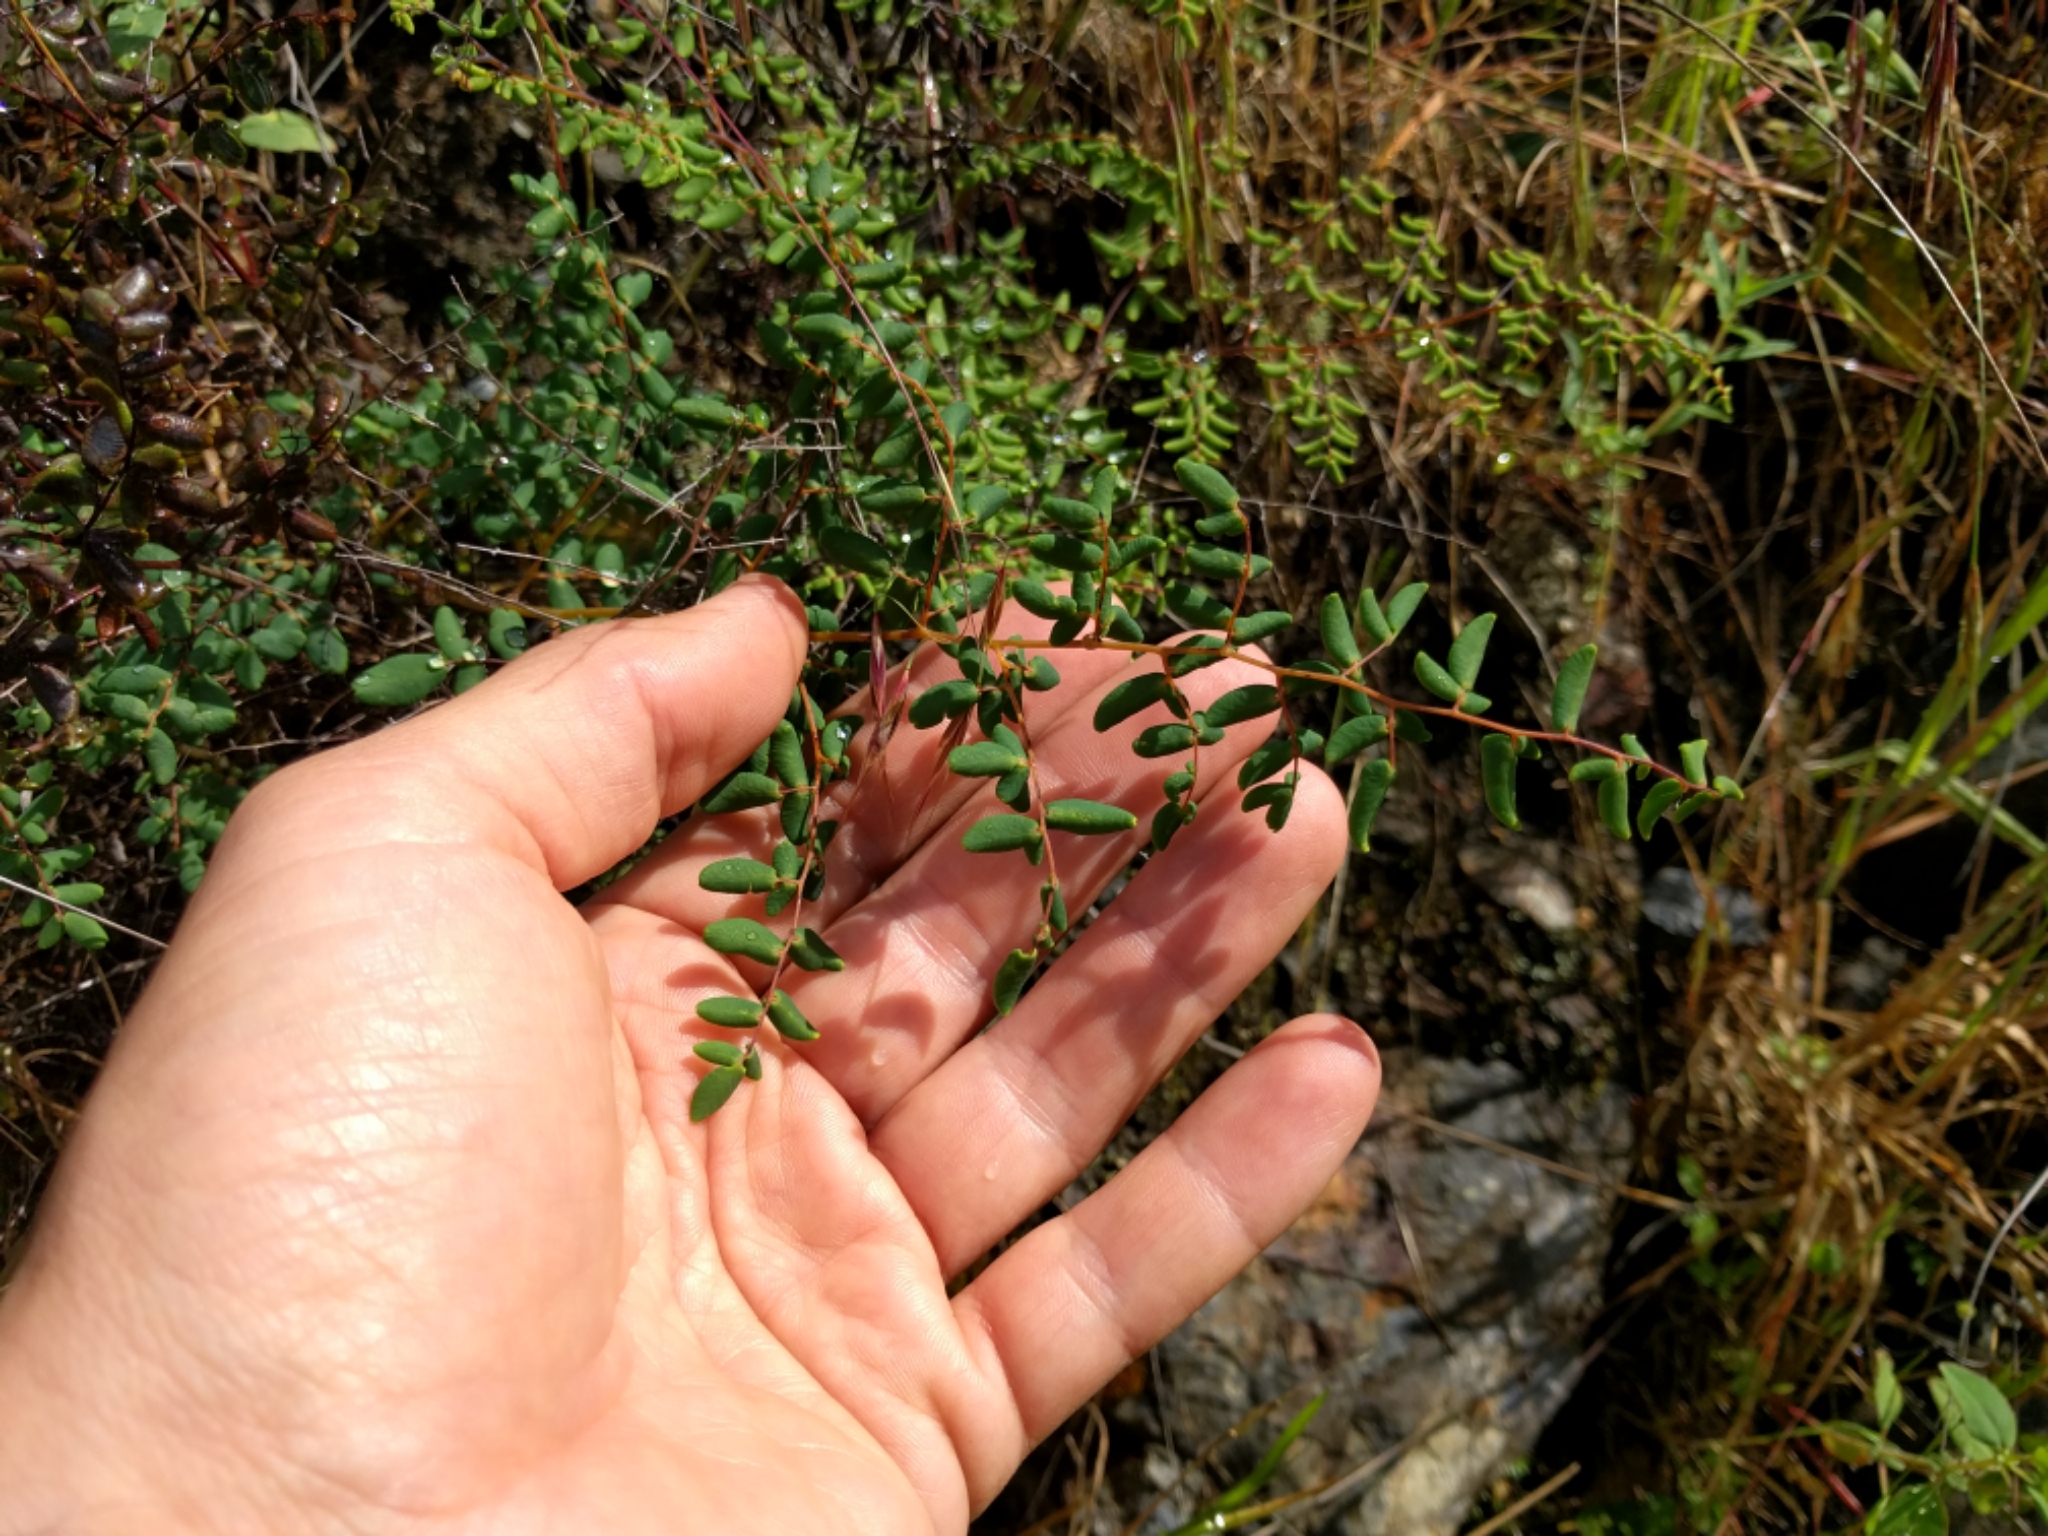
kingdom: Plantae
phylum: Tracheophyta
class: Polypodiopsida
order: Polypodiales
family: Pteridaceae
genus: Pellaea
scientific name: Pellaea andromedifolia
